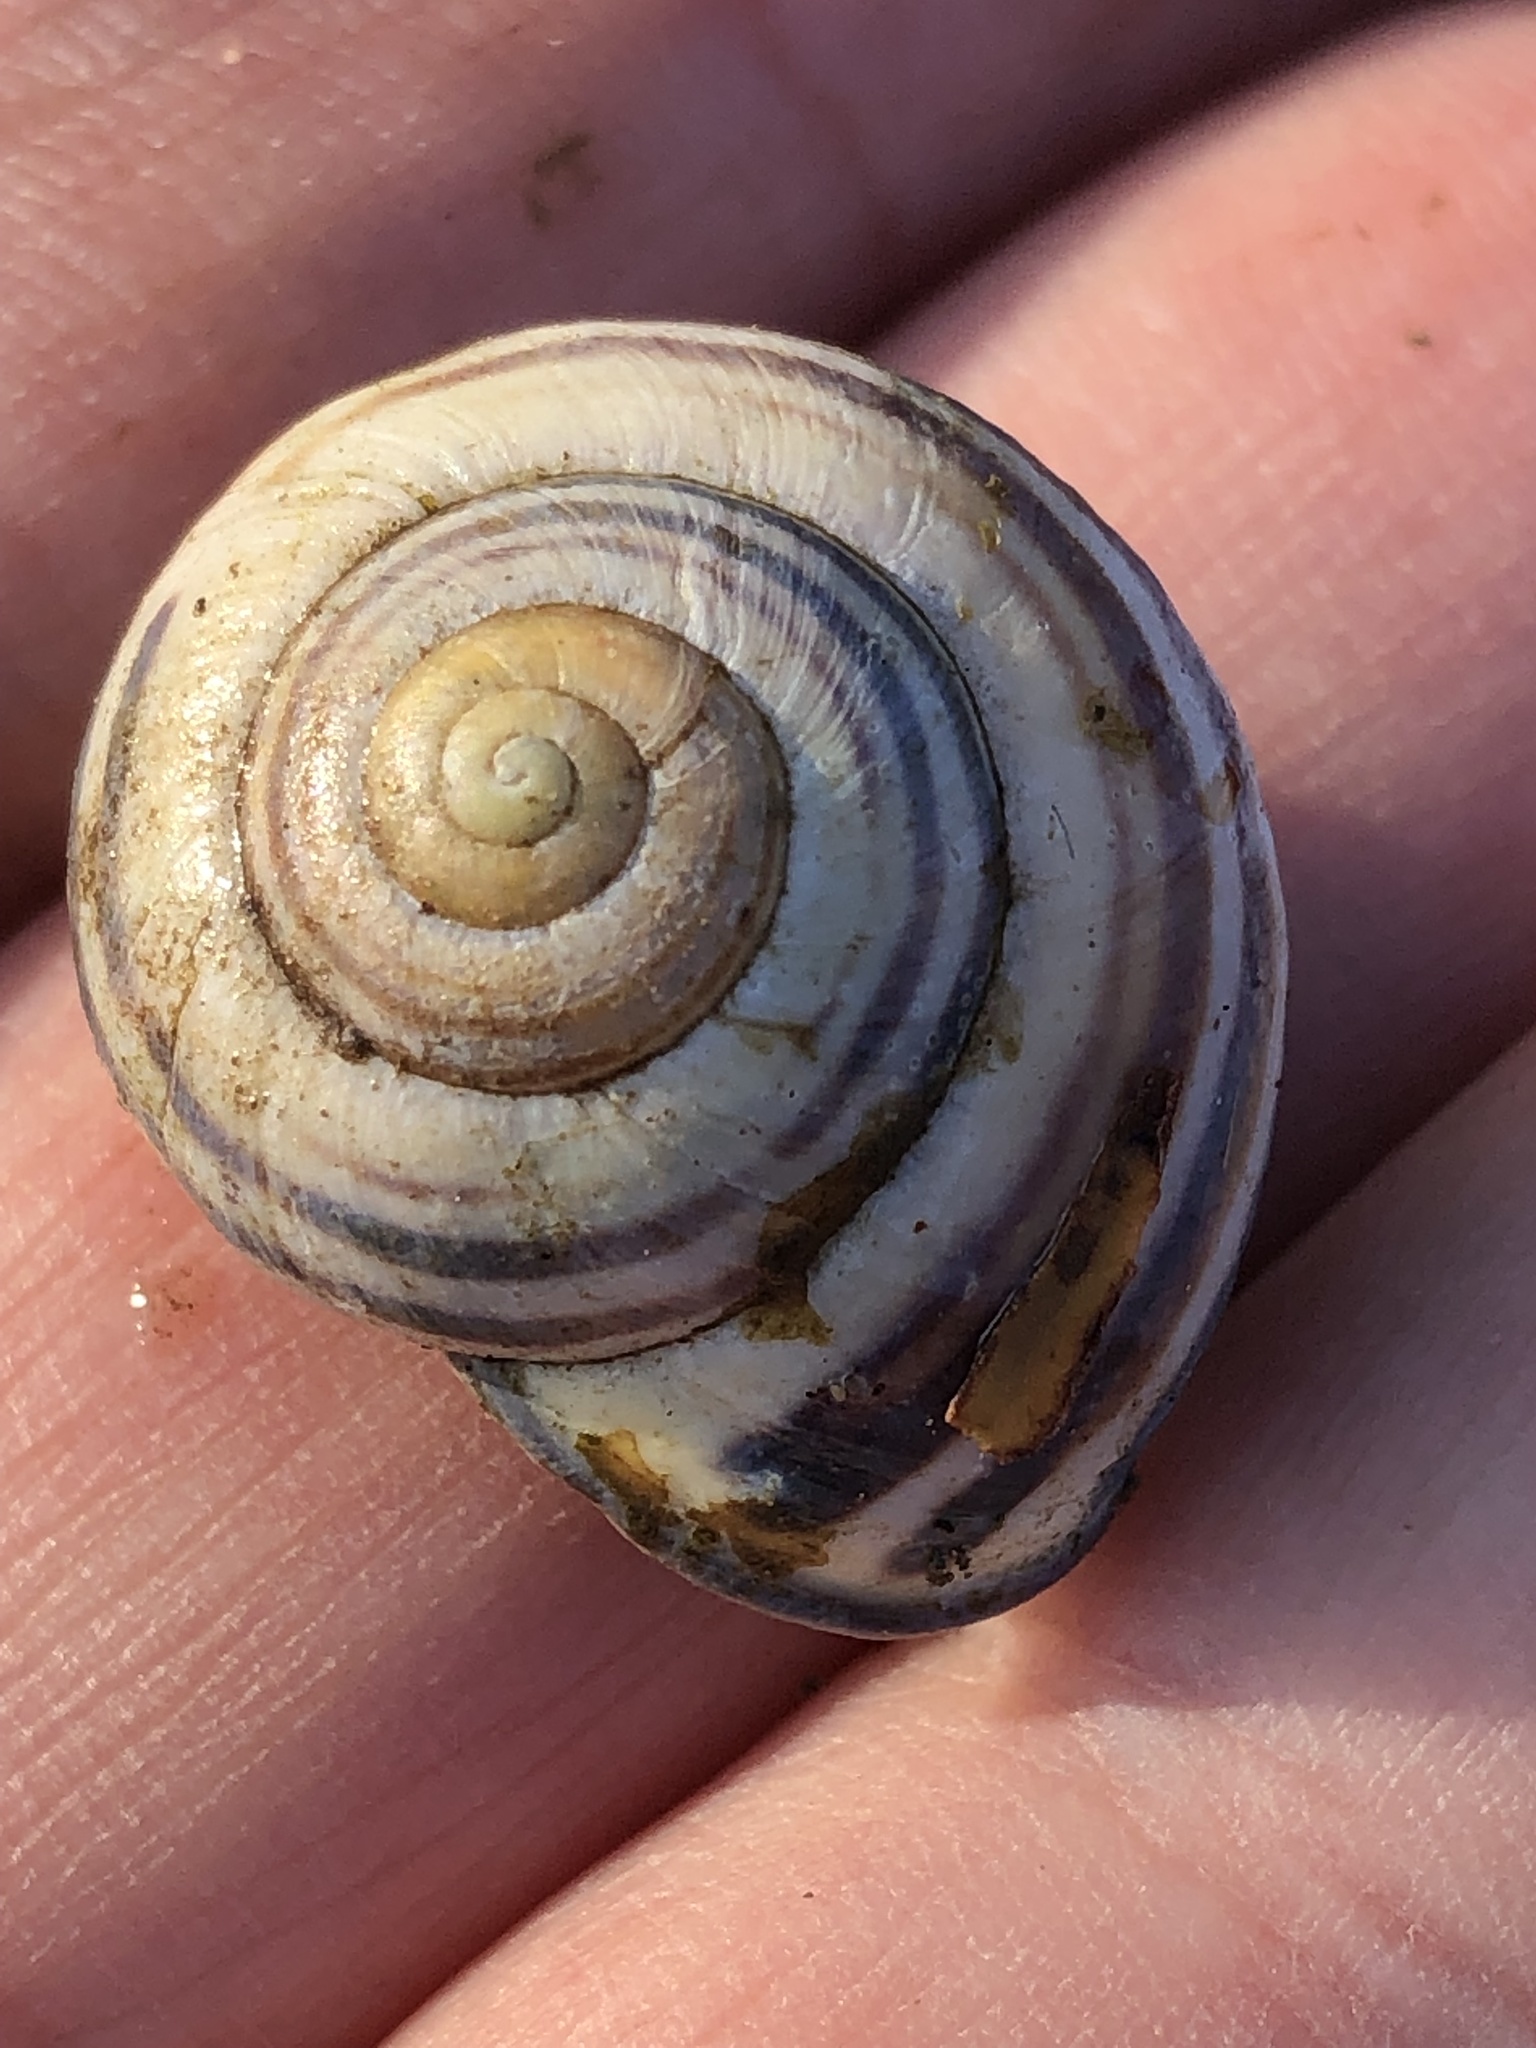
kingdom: Animalia
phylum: Mollusca
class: Gastropoda
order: Stylommatophora
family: Helicidae
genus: Cepaea
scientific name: Cepaea nemoralis
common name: Grovesnail
